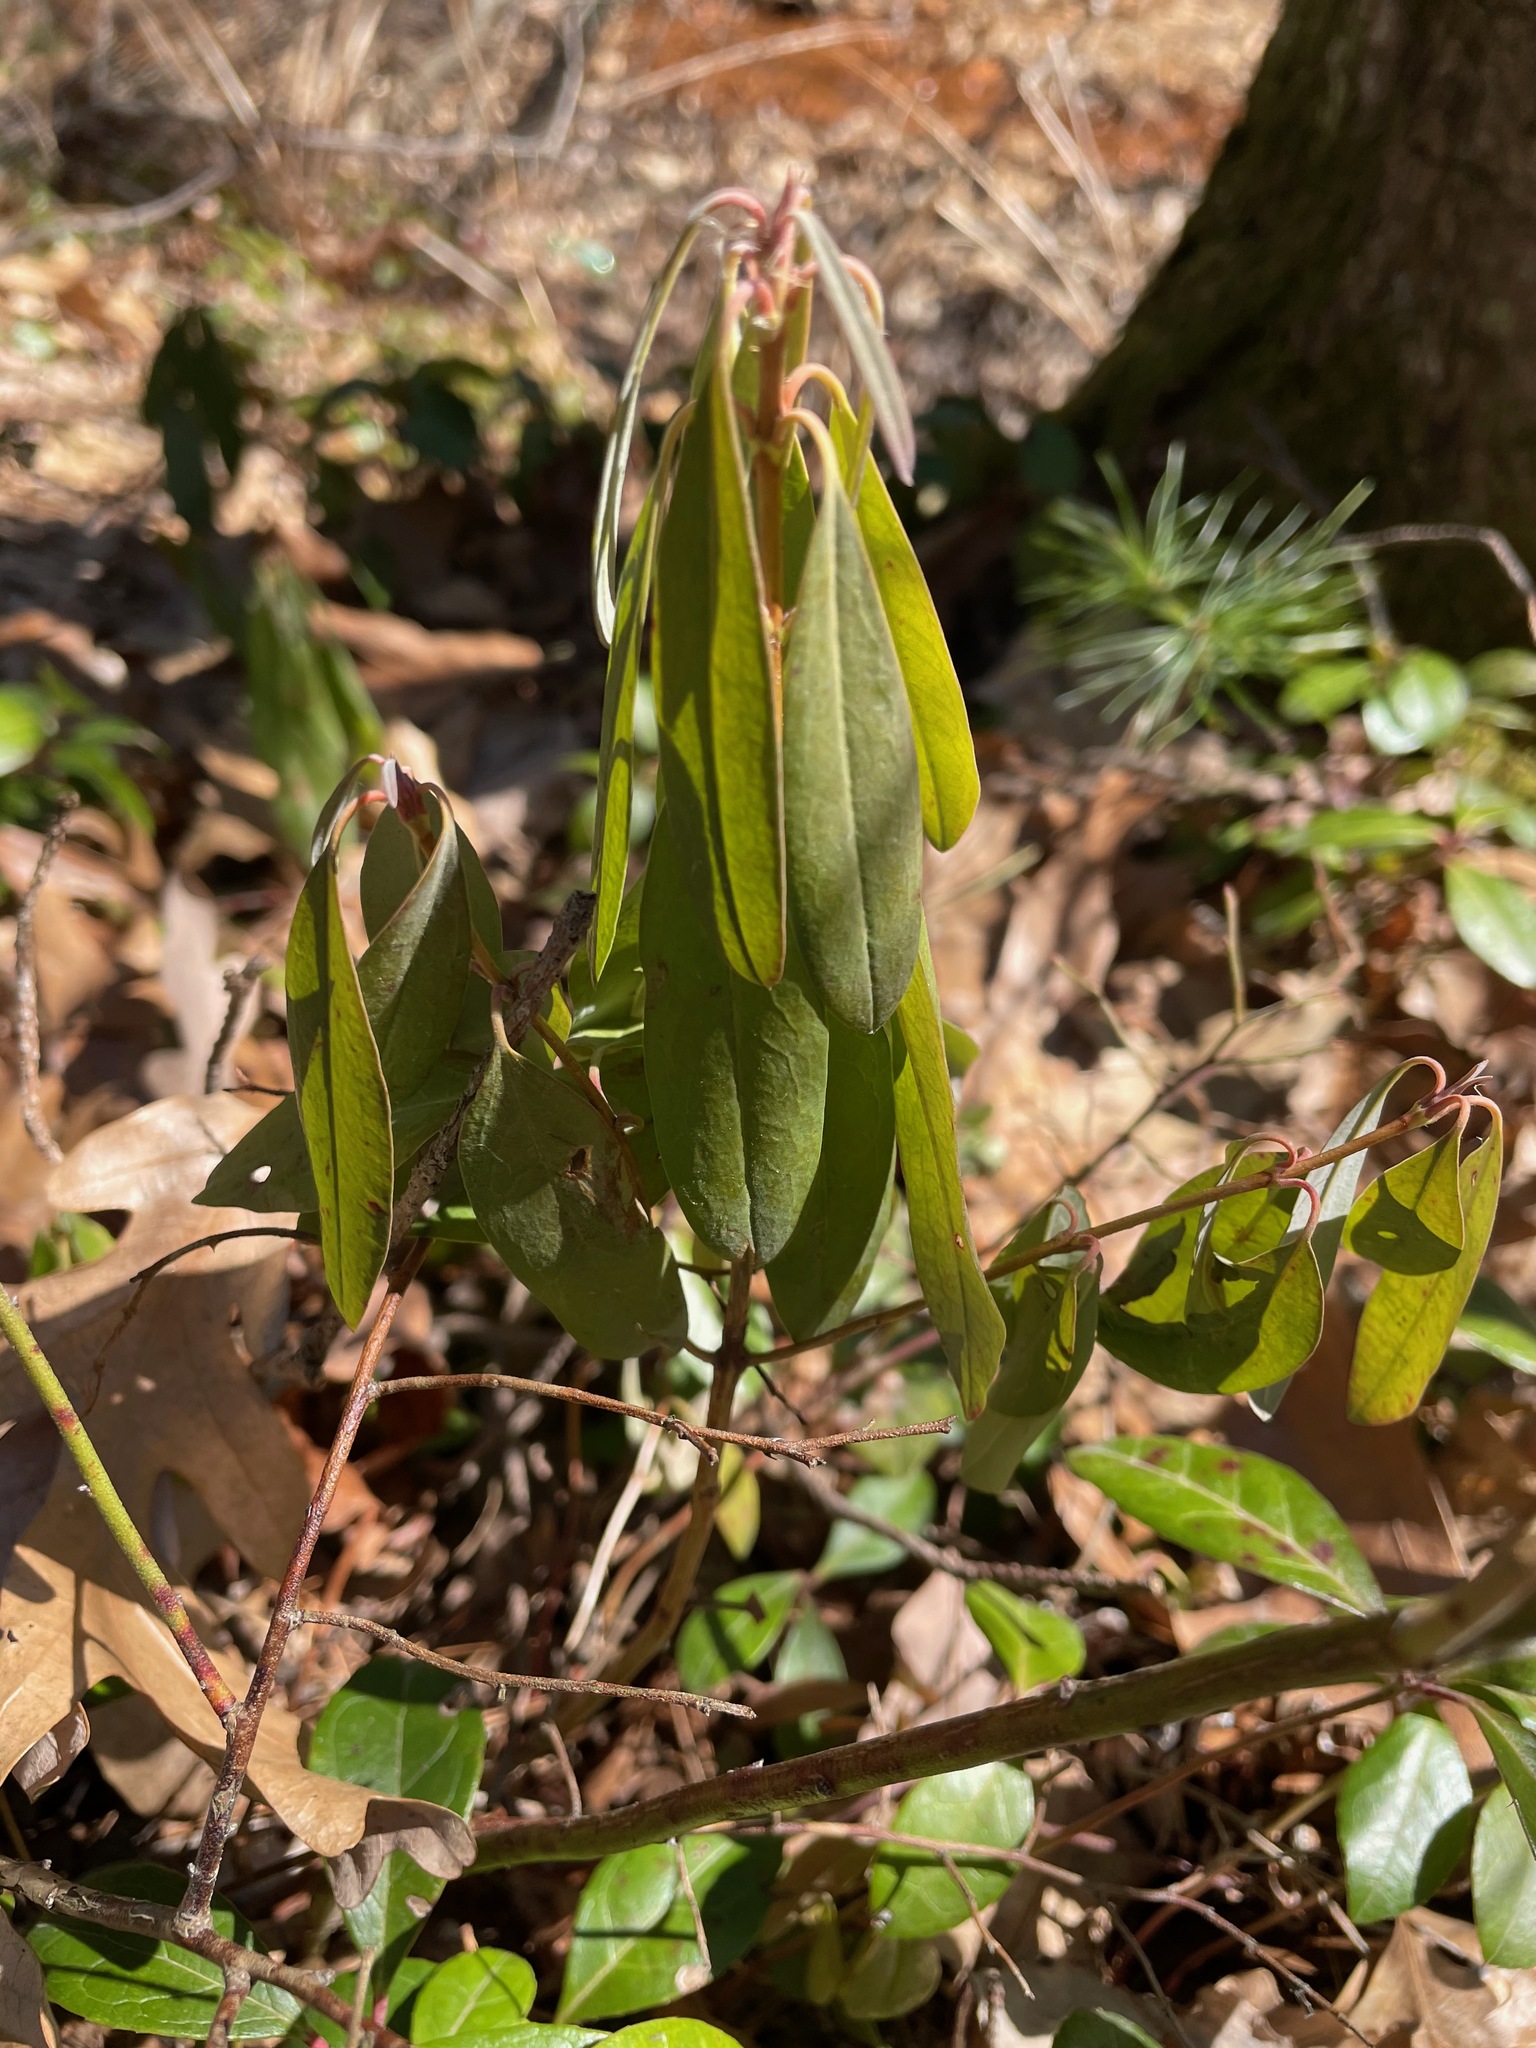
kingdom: Plantae
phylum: Tracheophyta
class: Magnoliopsida
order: Ericales
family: Ericaceae
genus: Kalmia
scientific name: Kalmia angustifolia
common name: Sheep-laurel
